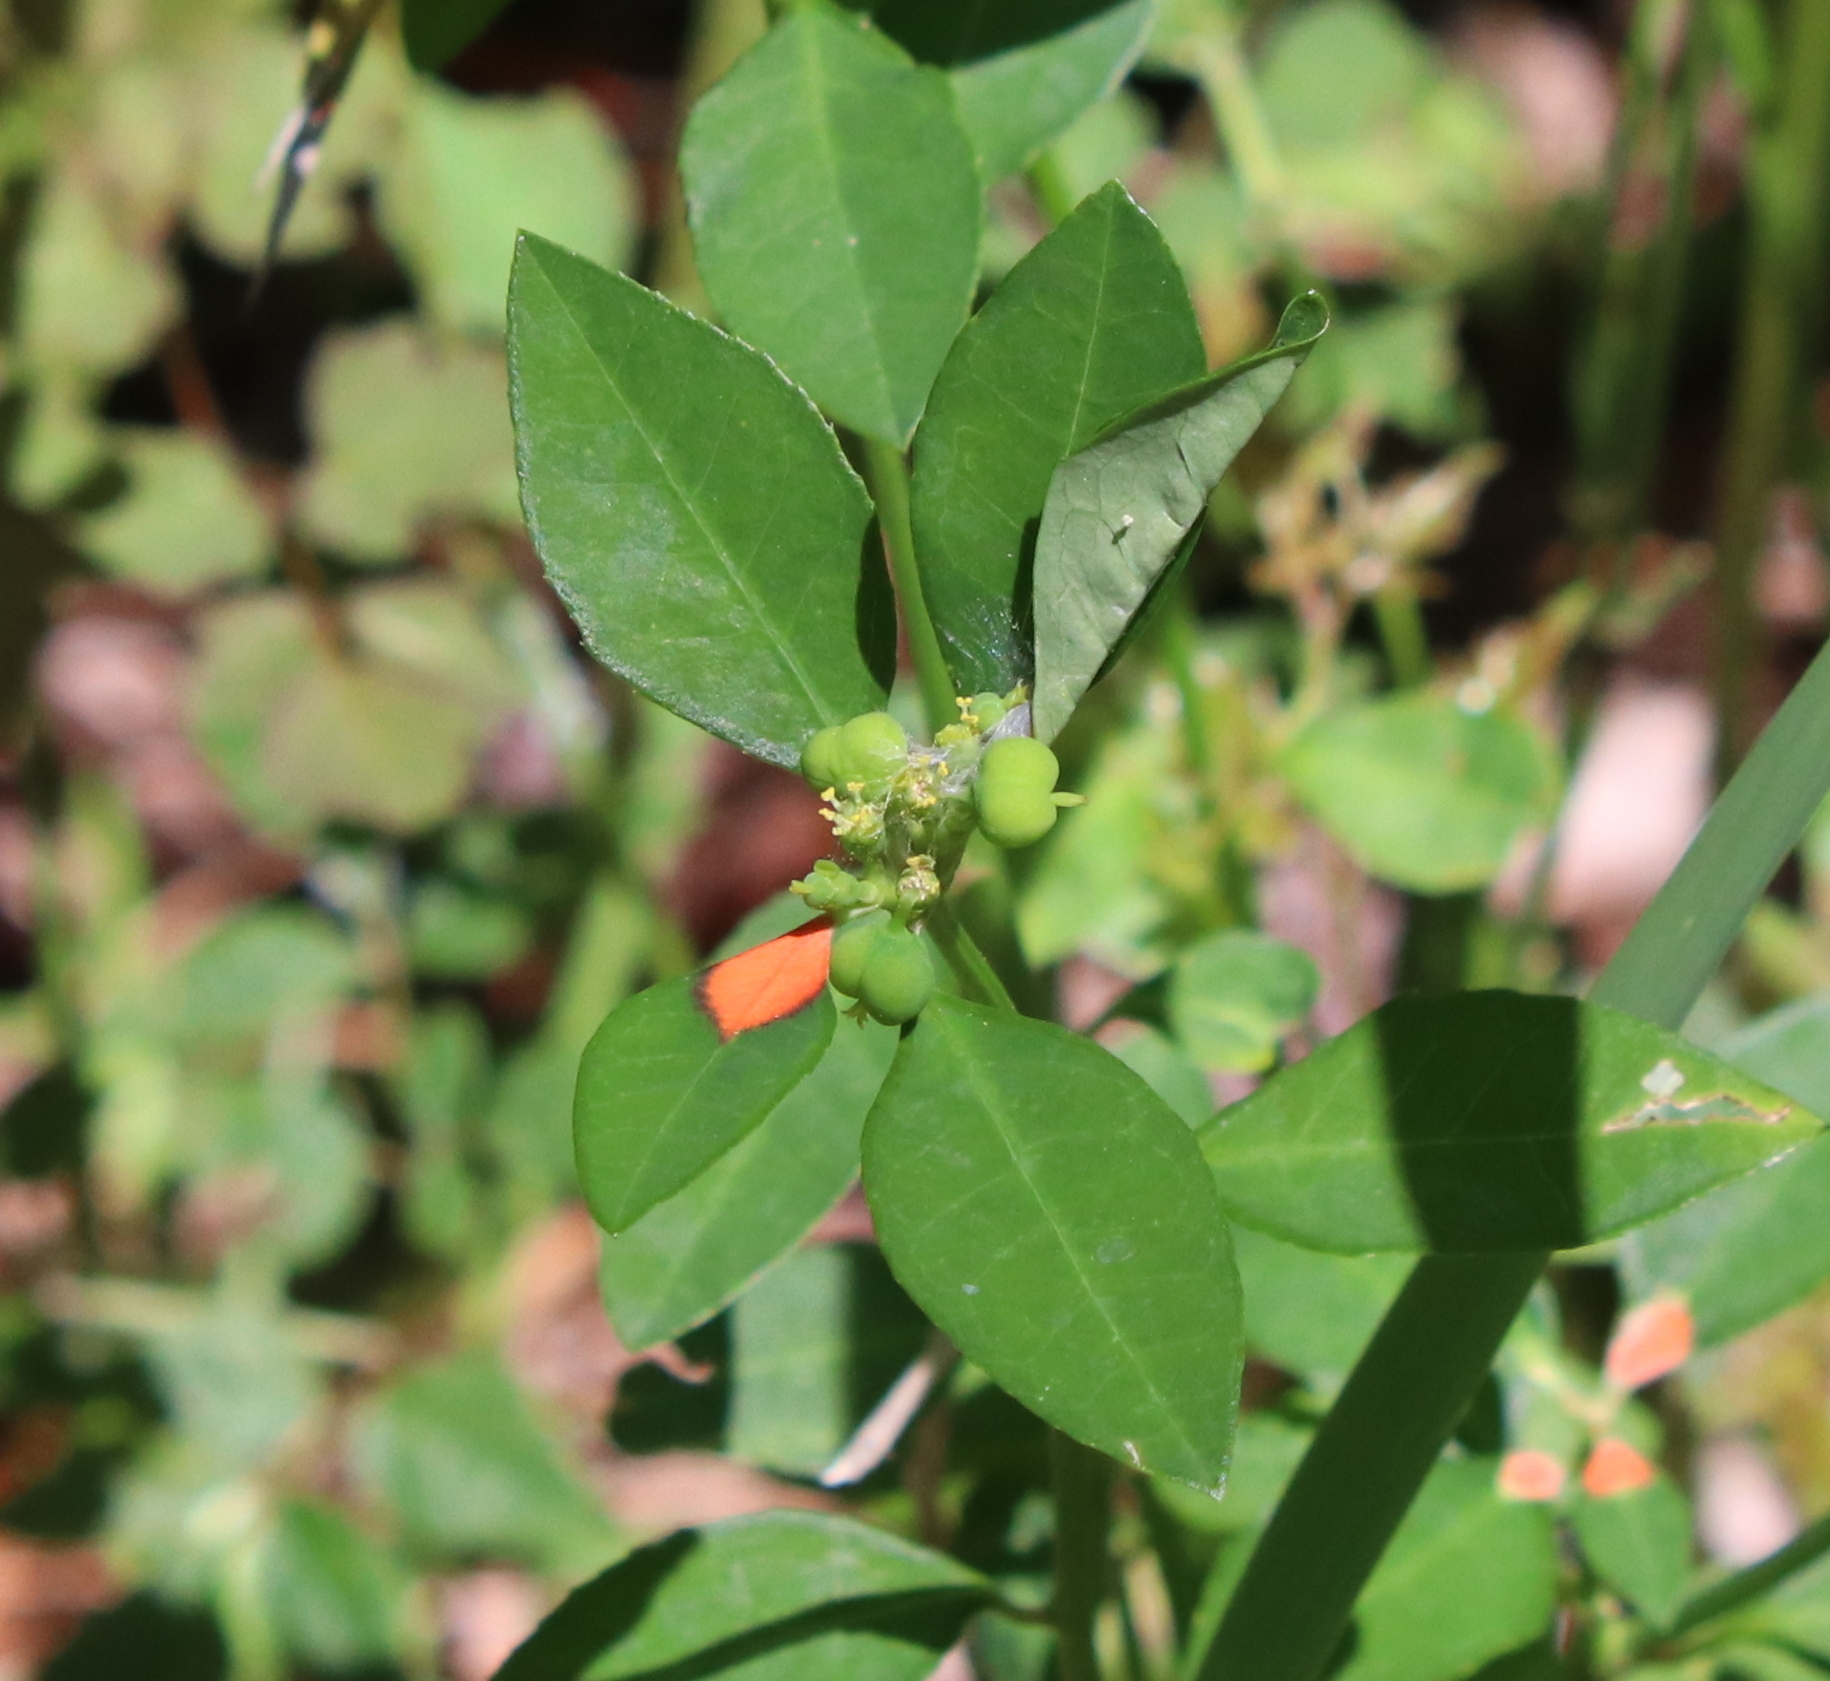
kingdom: Plantae
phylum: Tracheophyta
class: Magnoliopsida
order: Malpighiales
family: Euphorbiaceae
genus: Euphorbia
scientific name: Euphorbia heterophylla
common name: Mexican fireplant
